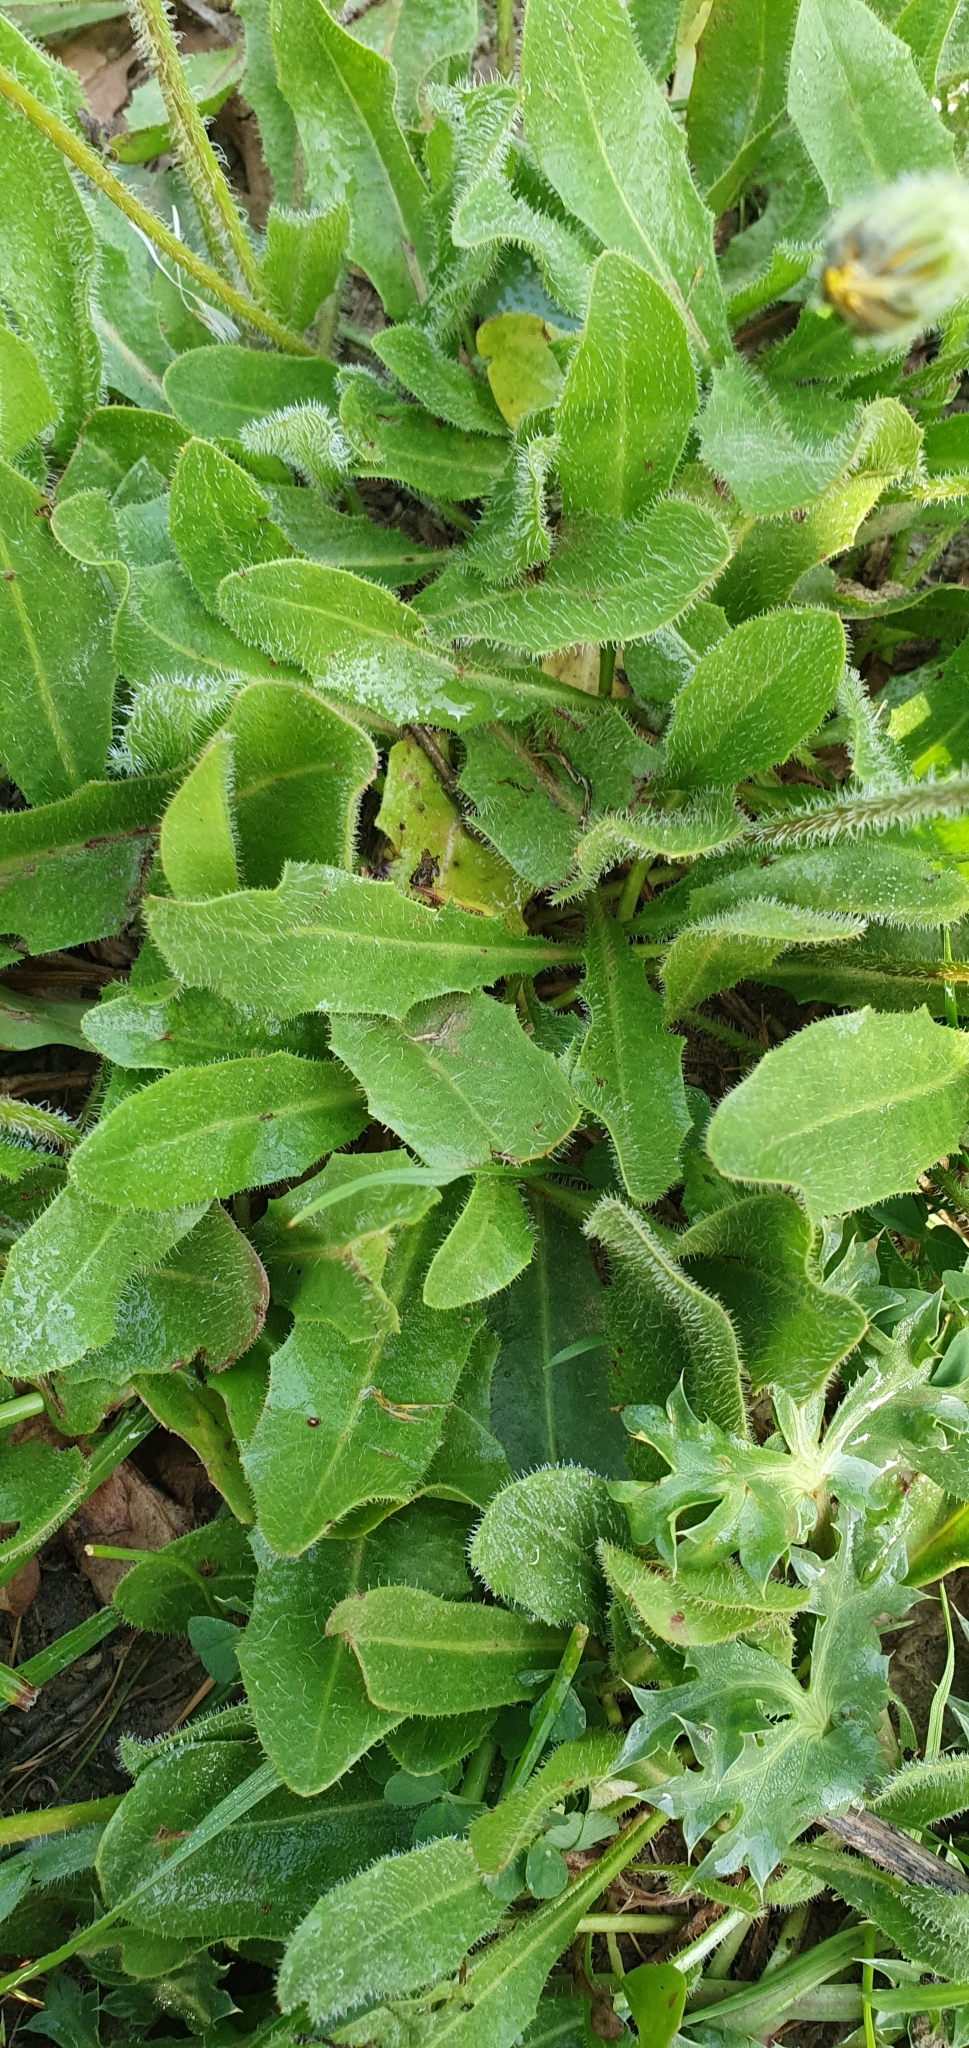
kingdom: Plantae
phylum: Tracheophyta
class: Magnoliopsida
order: Asterales
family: Asteraceae
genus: Leontodon
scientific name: Leontodon tuberosus
